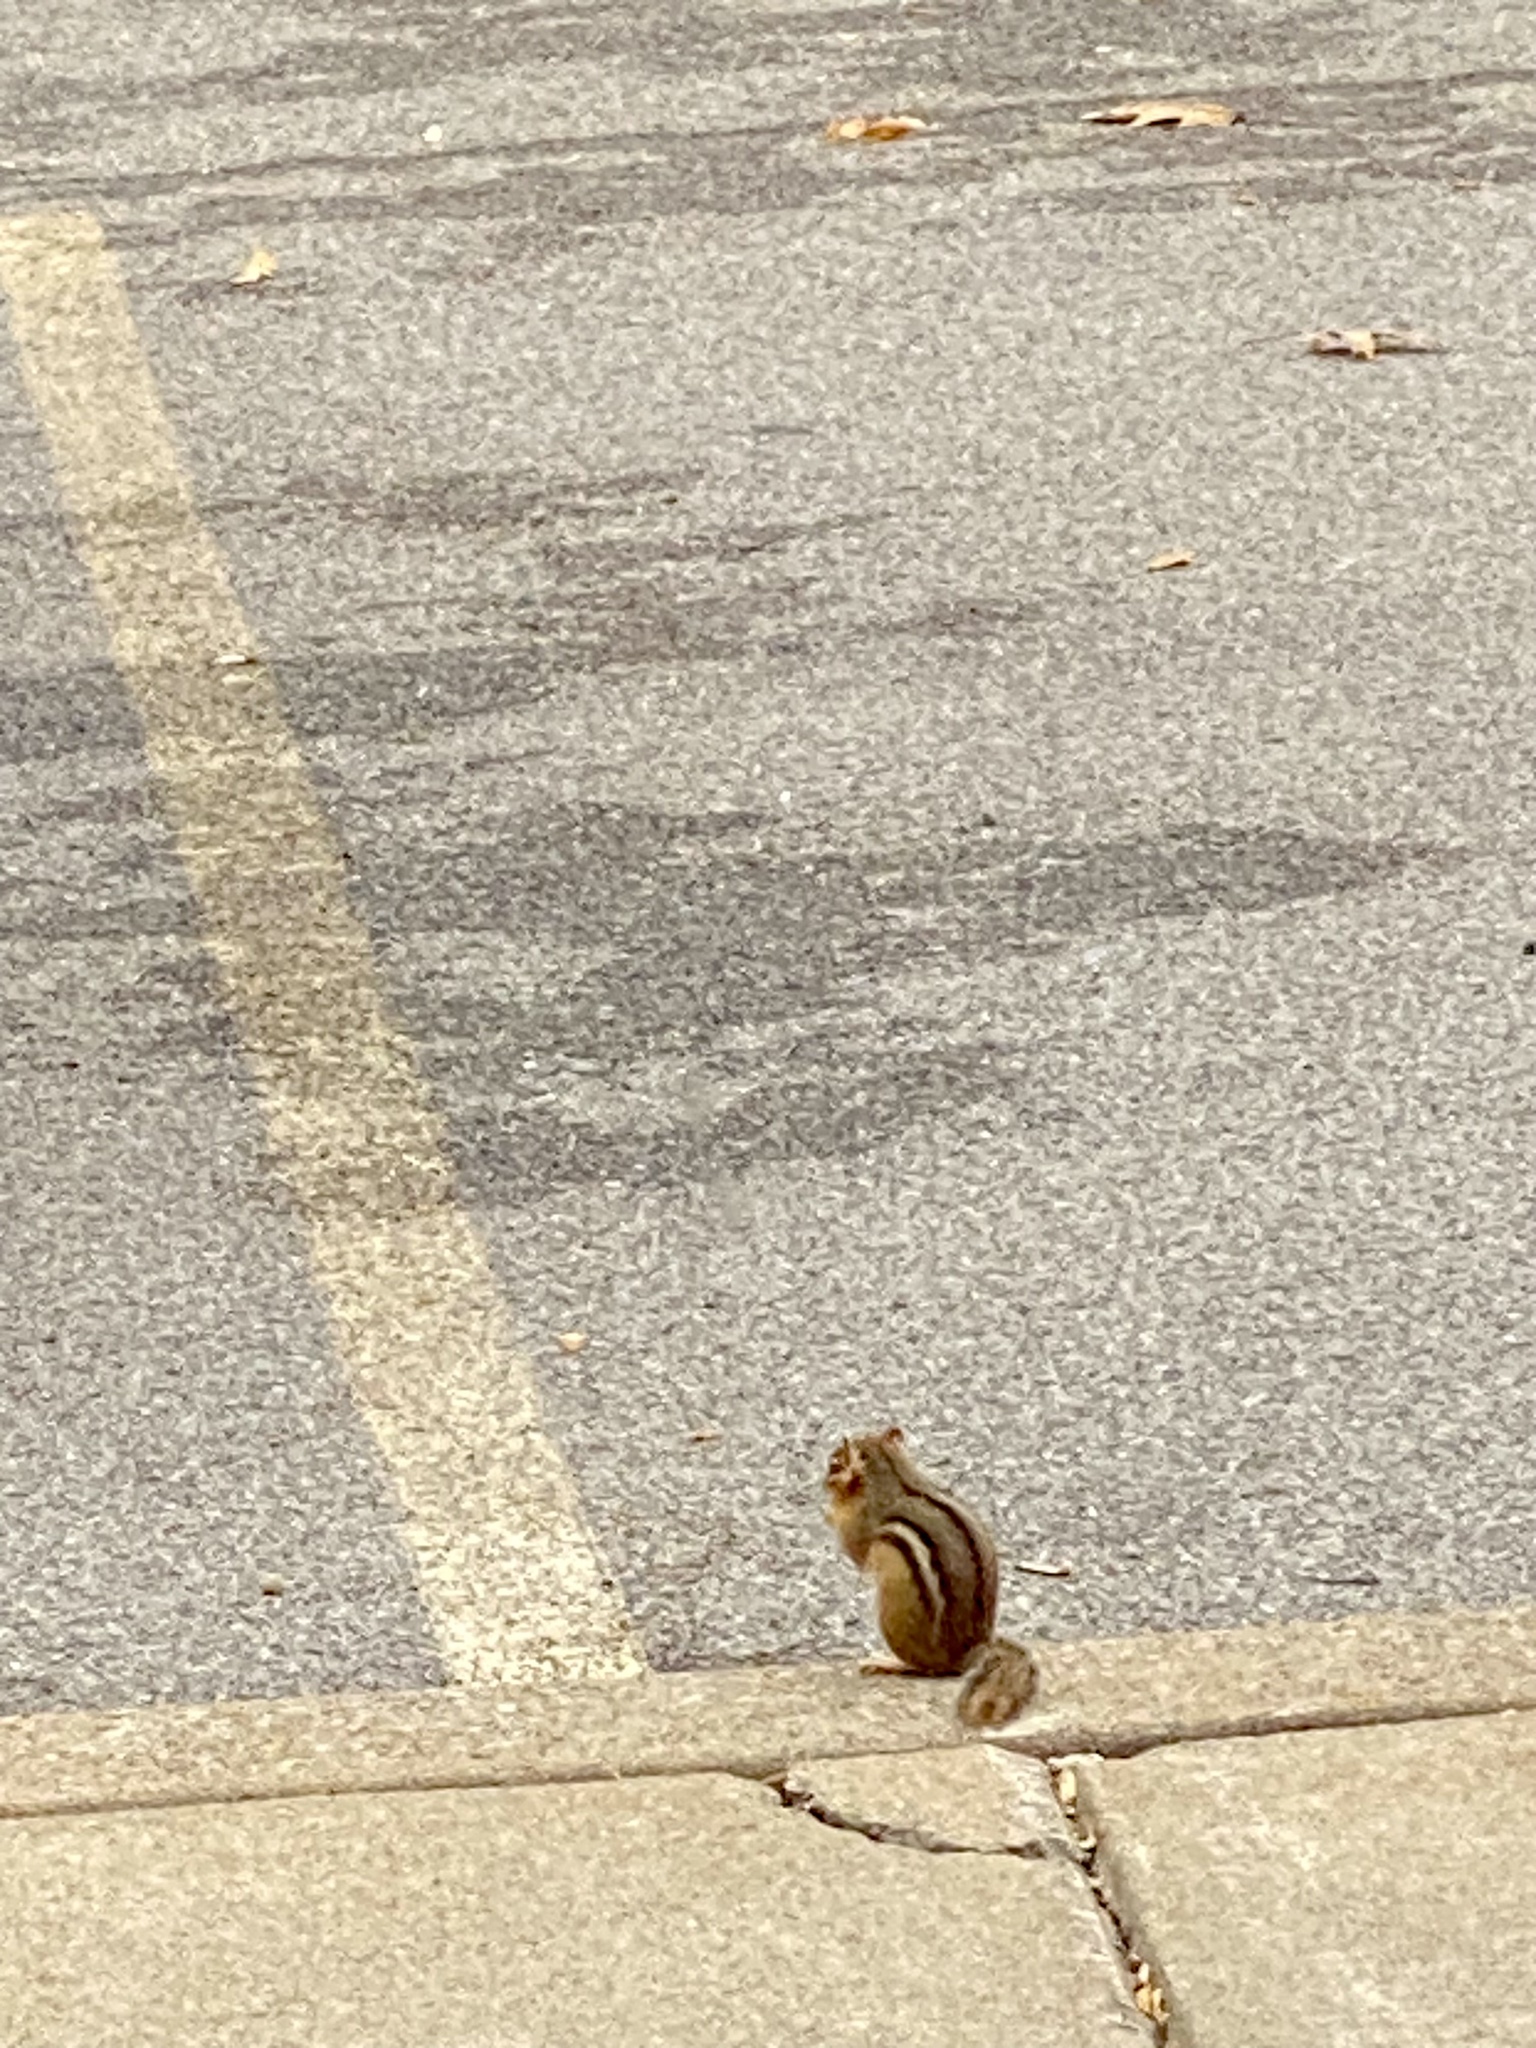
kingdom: Animalia
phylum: Chordata
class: Mammalia
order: Rodentia
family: Sciuridae
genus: Tamias
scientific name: Tamias striatus
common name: Eastern chipmunk
